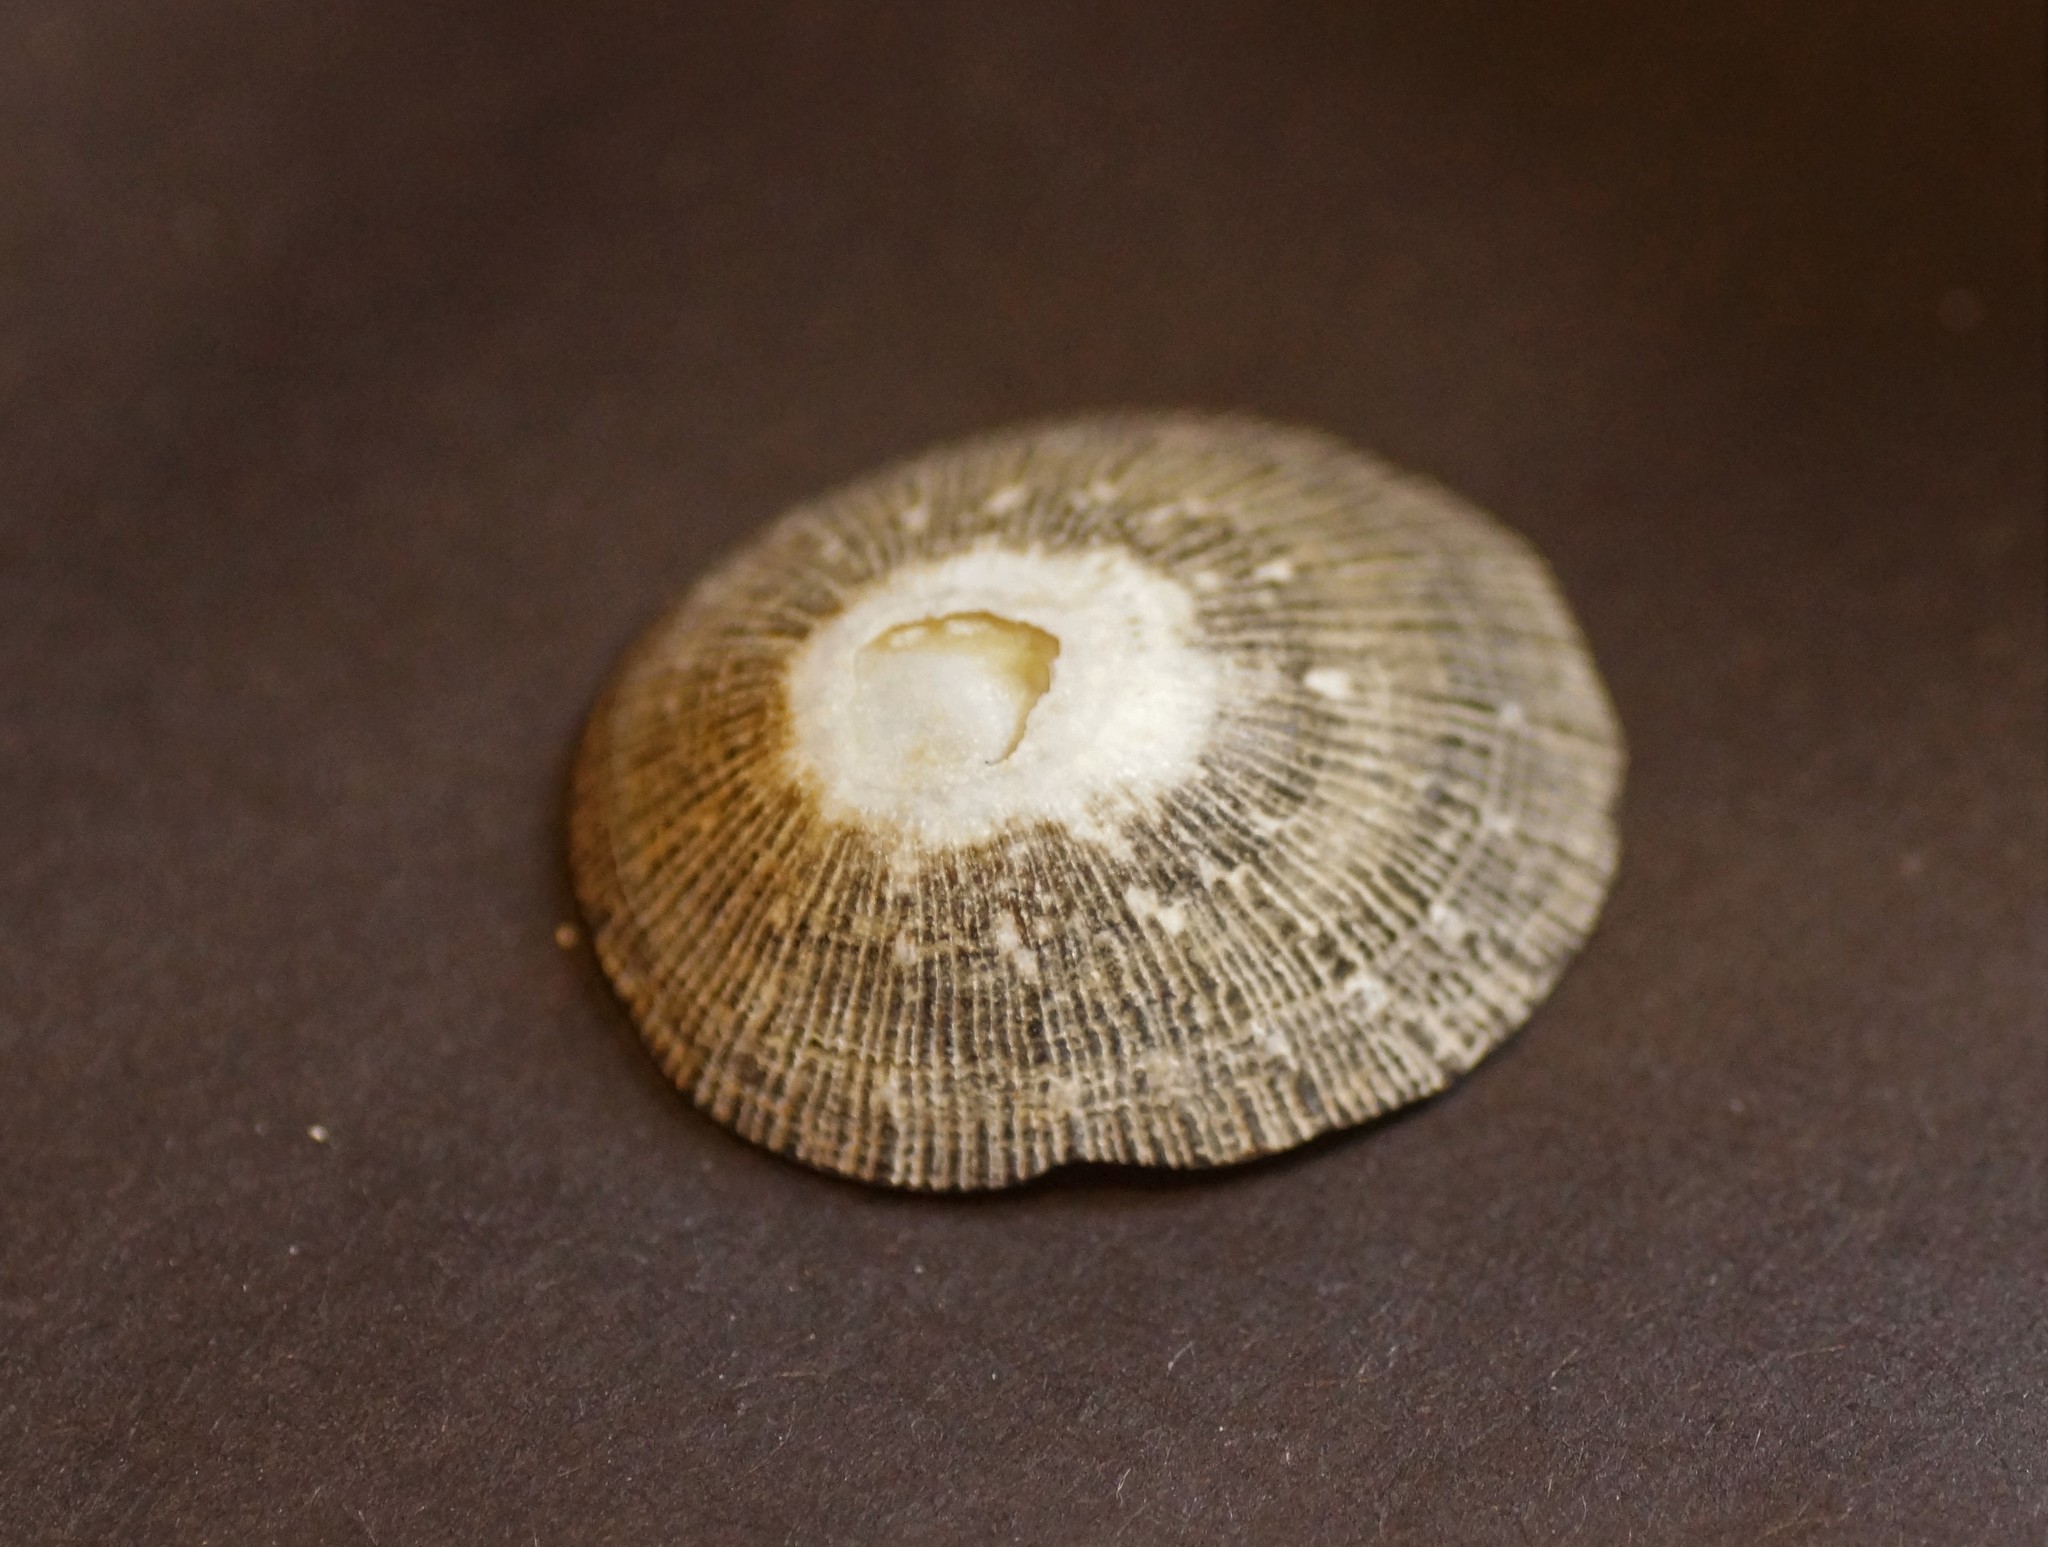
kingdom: Animalia
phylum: Mollusca
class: Gastropoda
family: Patellidae
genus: Scutellastra
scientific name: Scutellastra peronii
